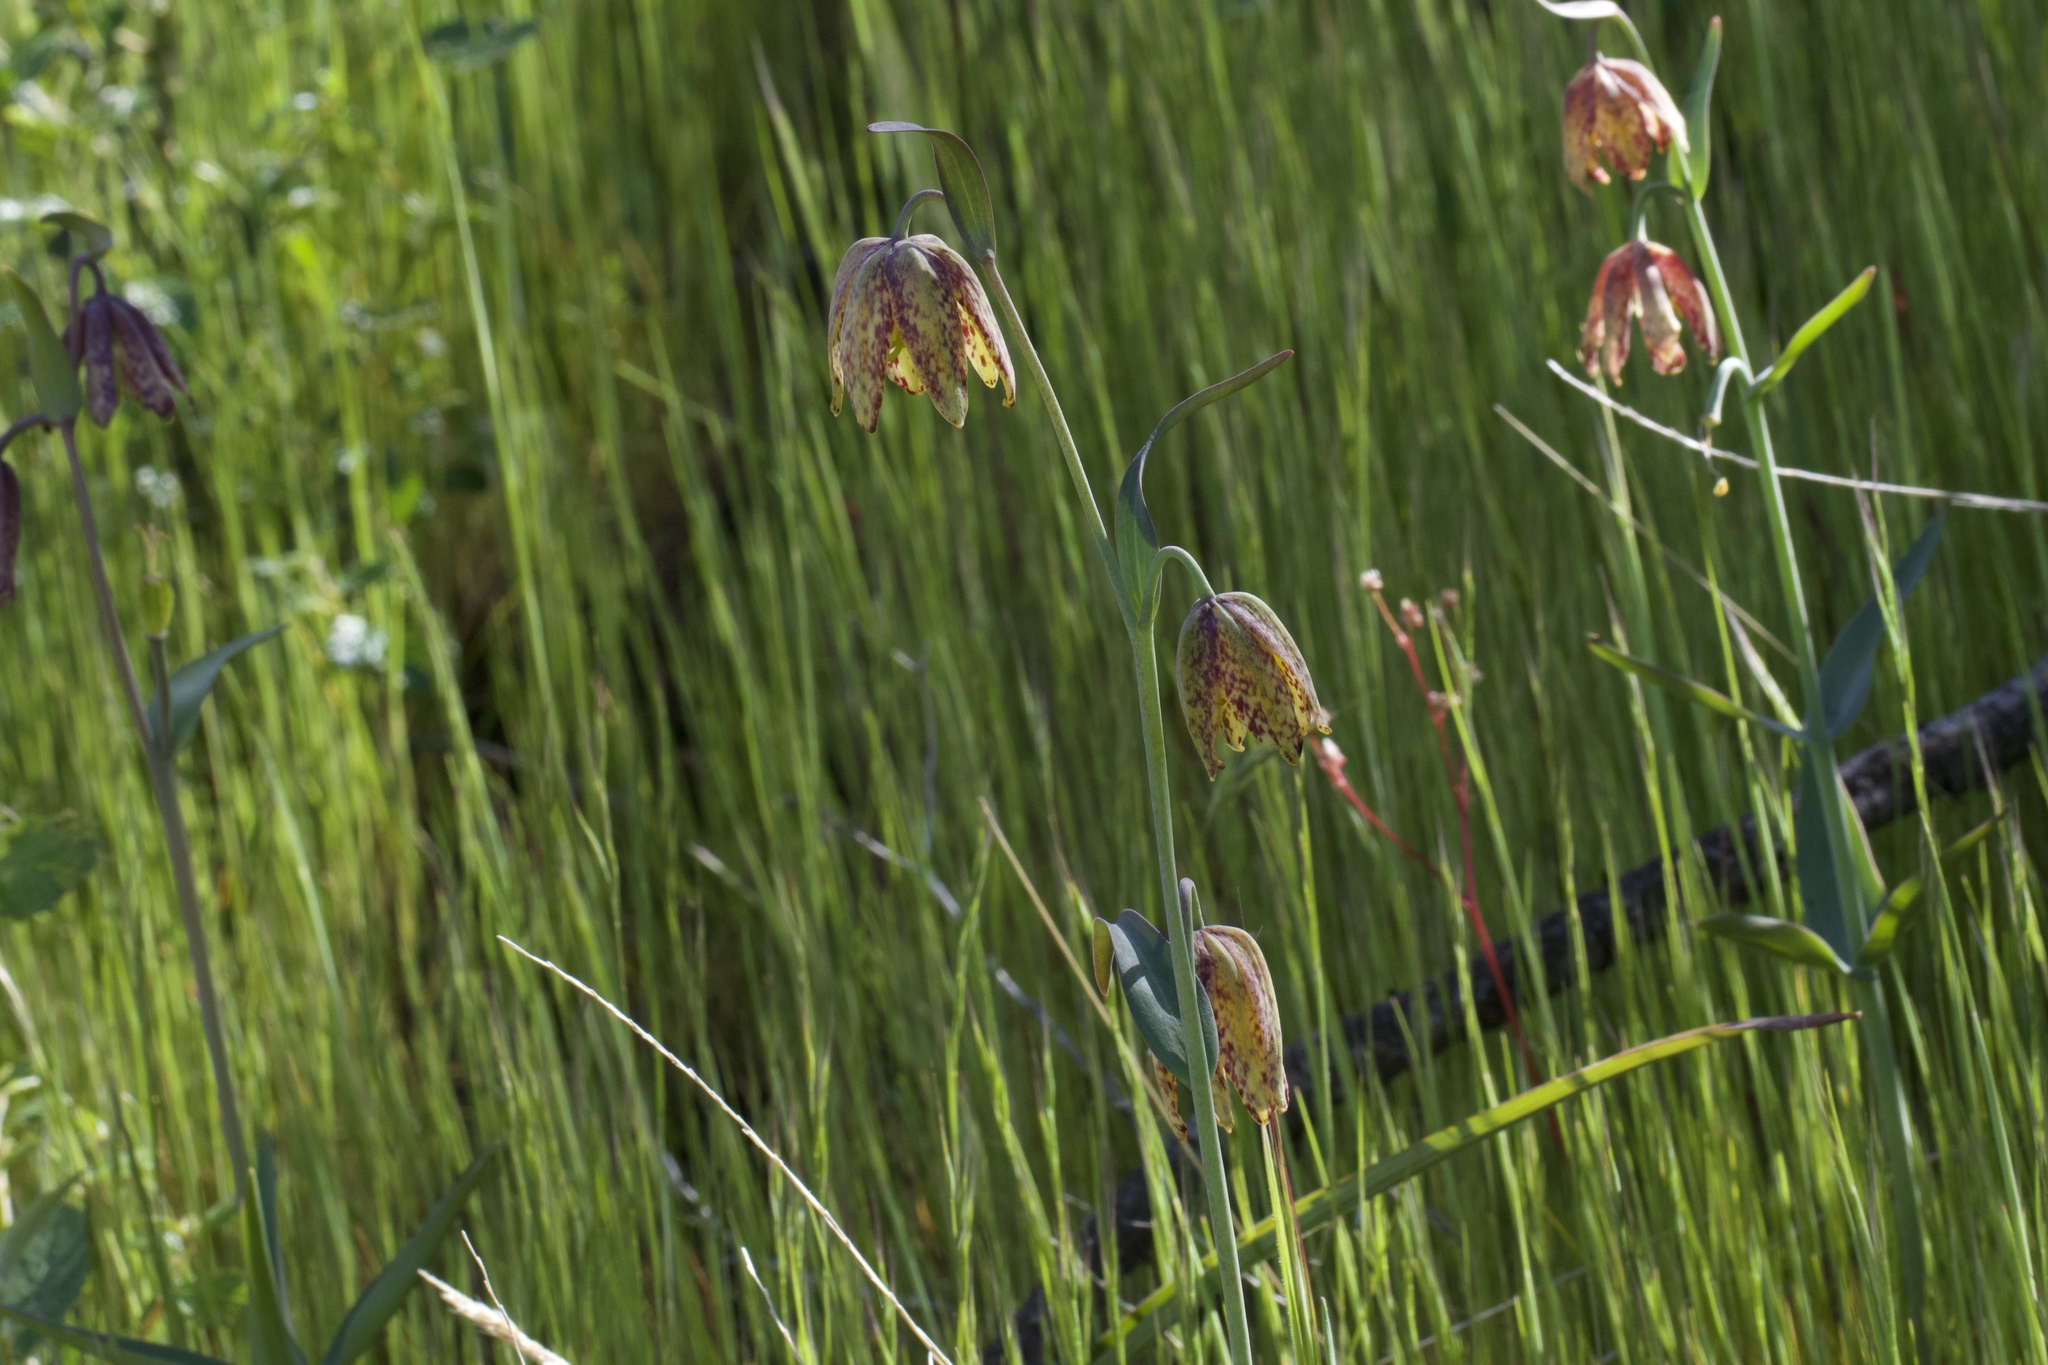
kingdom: Plantae
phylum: Tracheophyta
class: Liliopsida
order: Liliales
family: Liliaceae
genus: Fritillaria
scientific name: Fritillaria affinis
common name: Ojai fritillary
